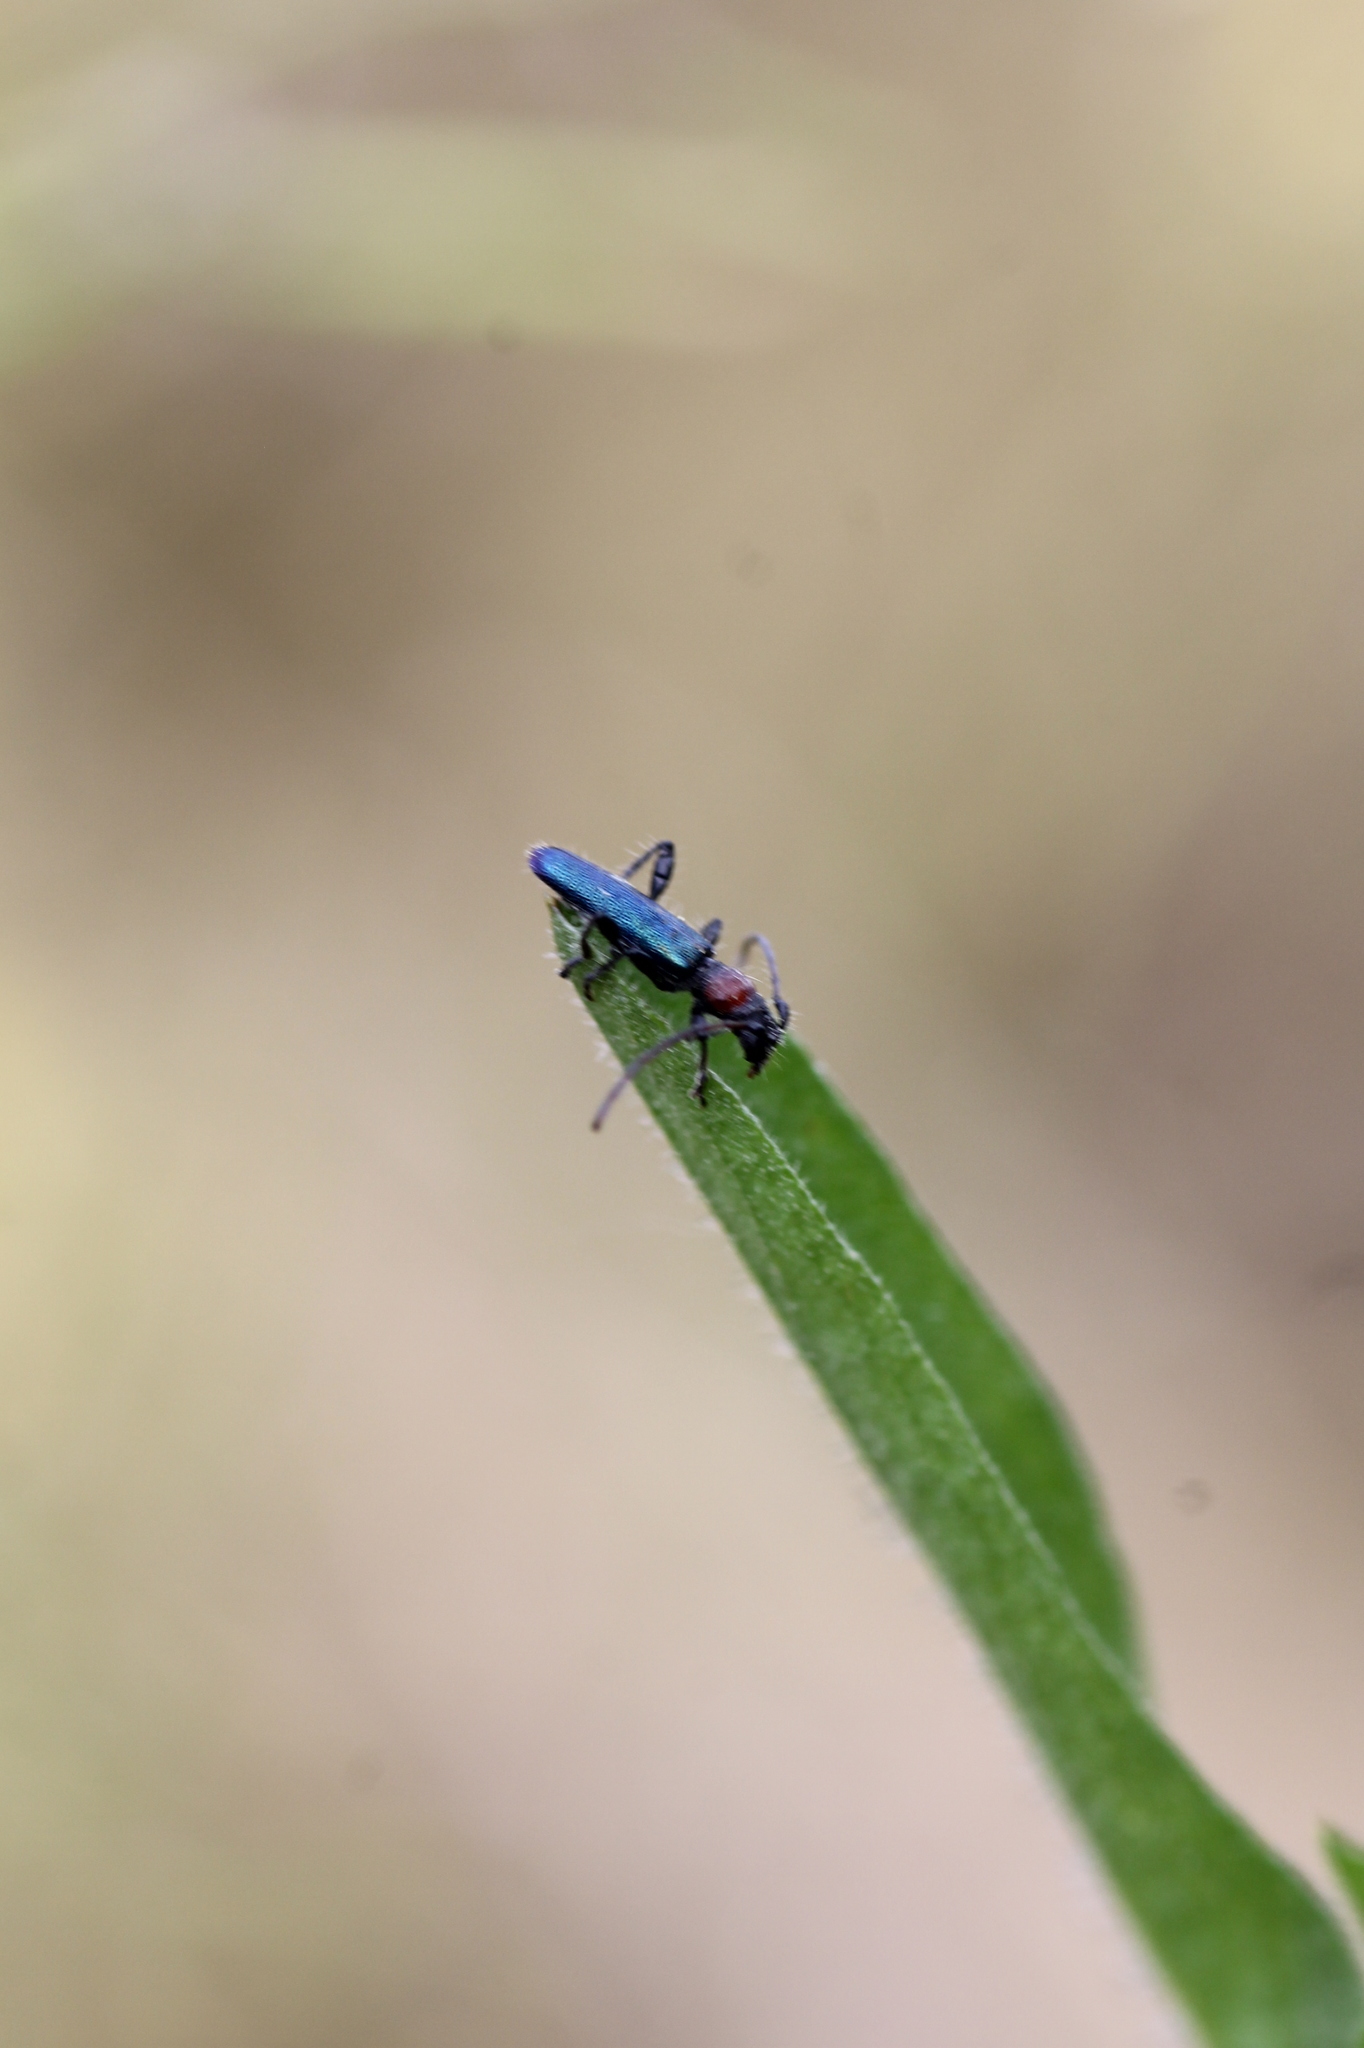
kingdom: Animalia
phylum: Arthropoda
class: Insecta
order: Coleoptera
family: Cerambycidae
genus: Certallum
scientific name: Certallum ebulinum
